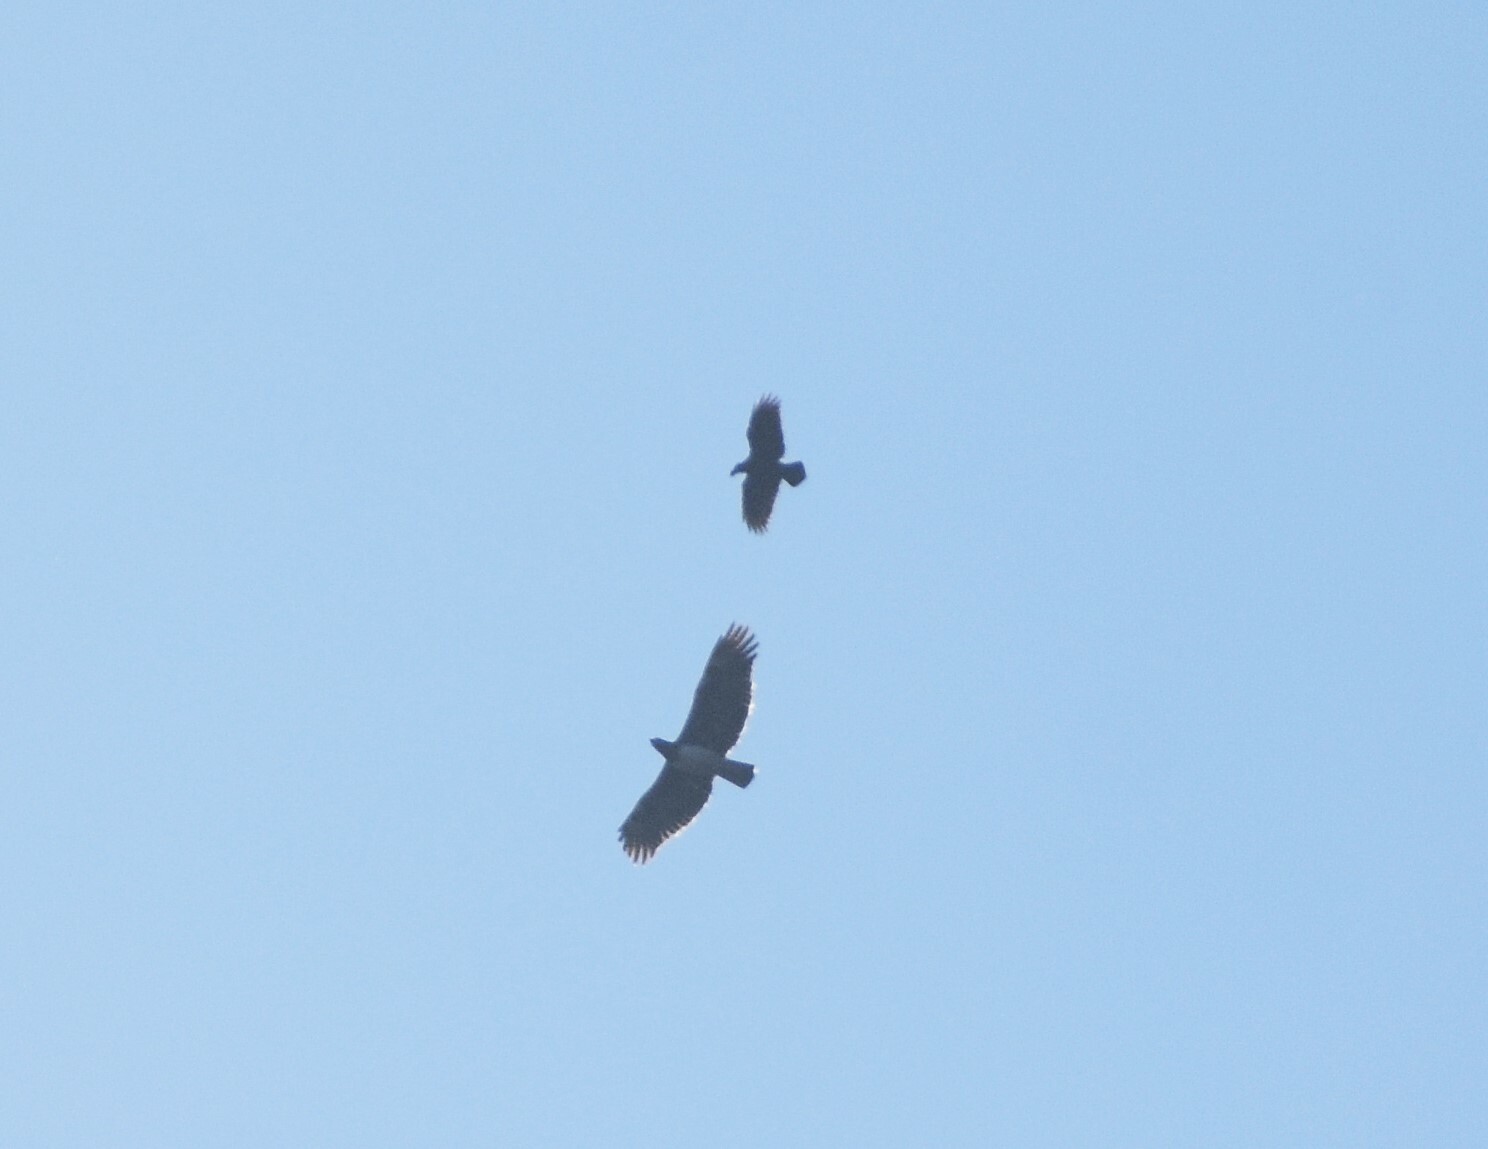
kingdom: Animalia
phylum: Chordata
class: Aves
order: Accipitriformes
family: Accipitridae
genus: Polemaetus
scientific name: Polemaetus bellicosus
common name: Martial eagle
